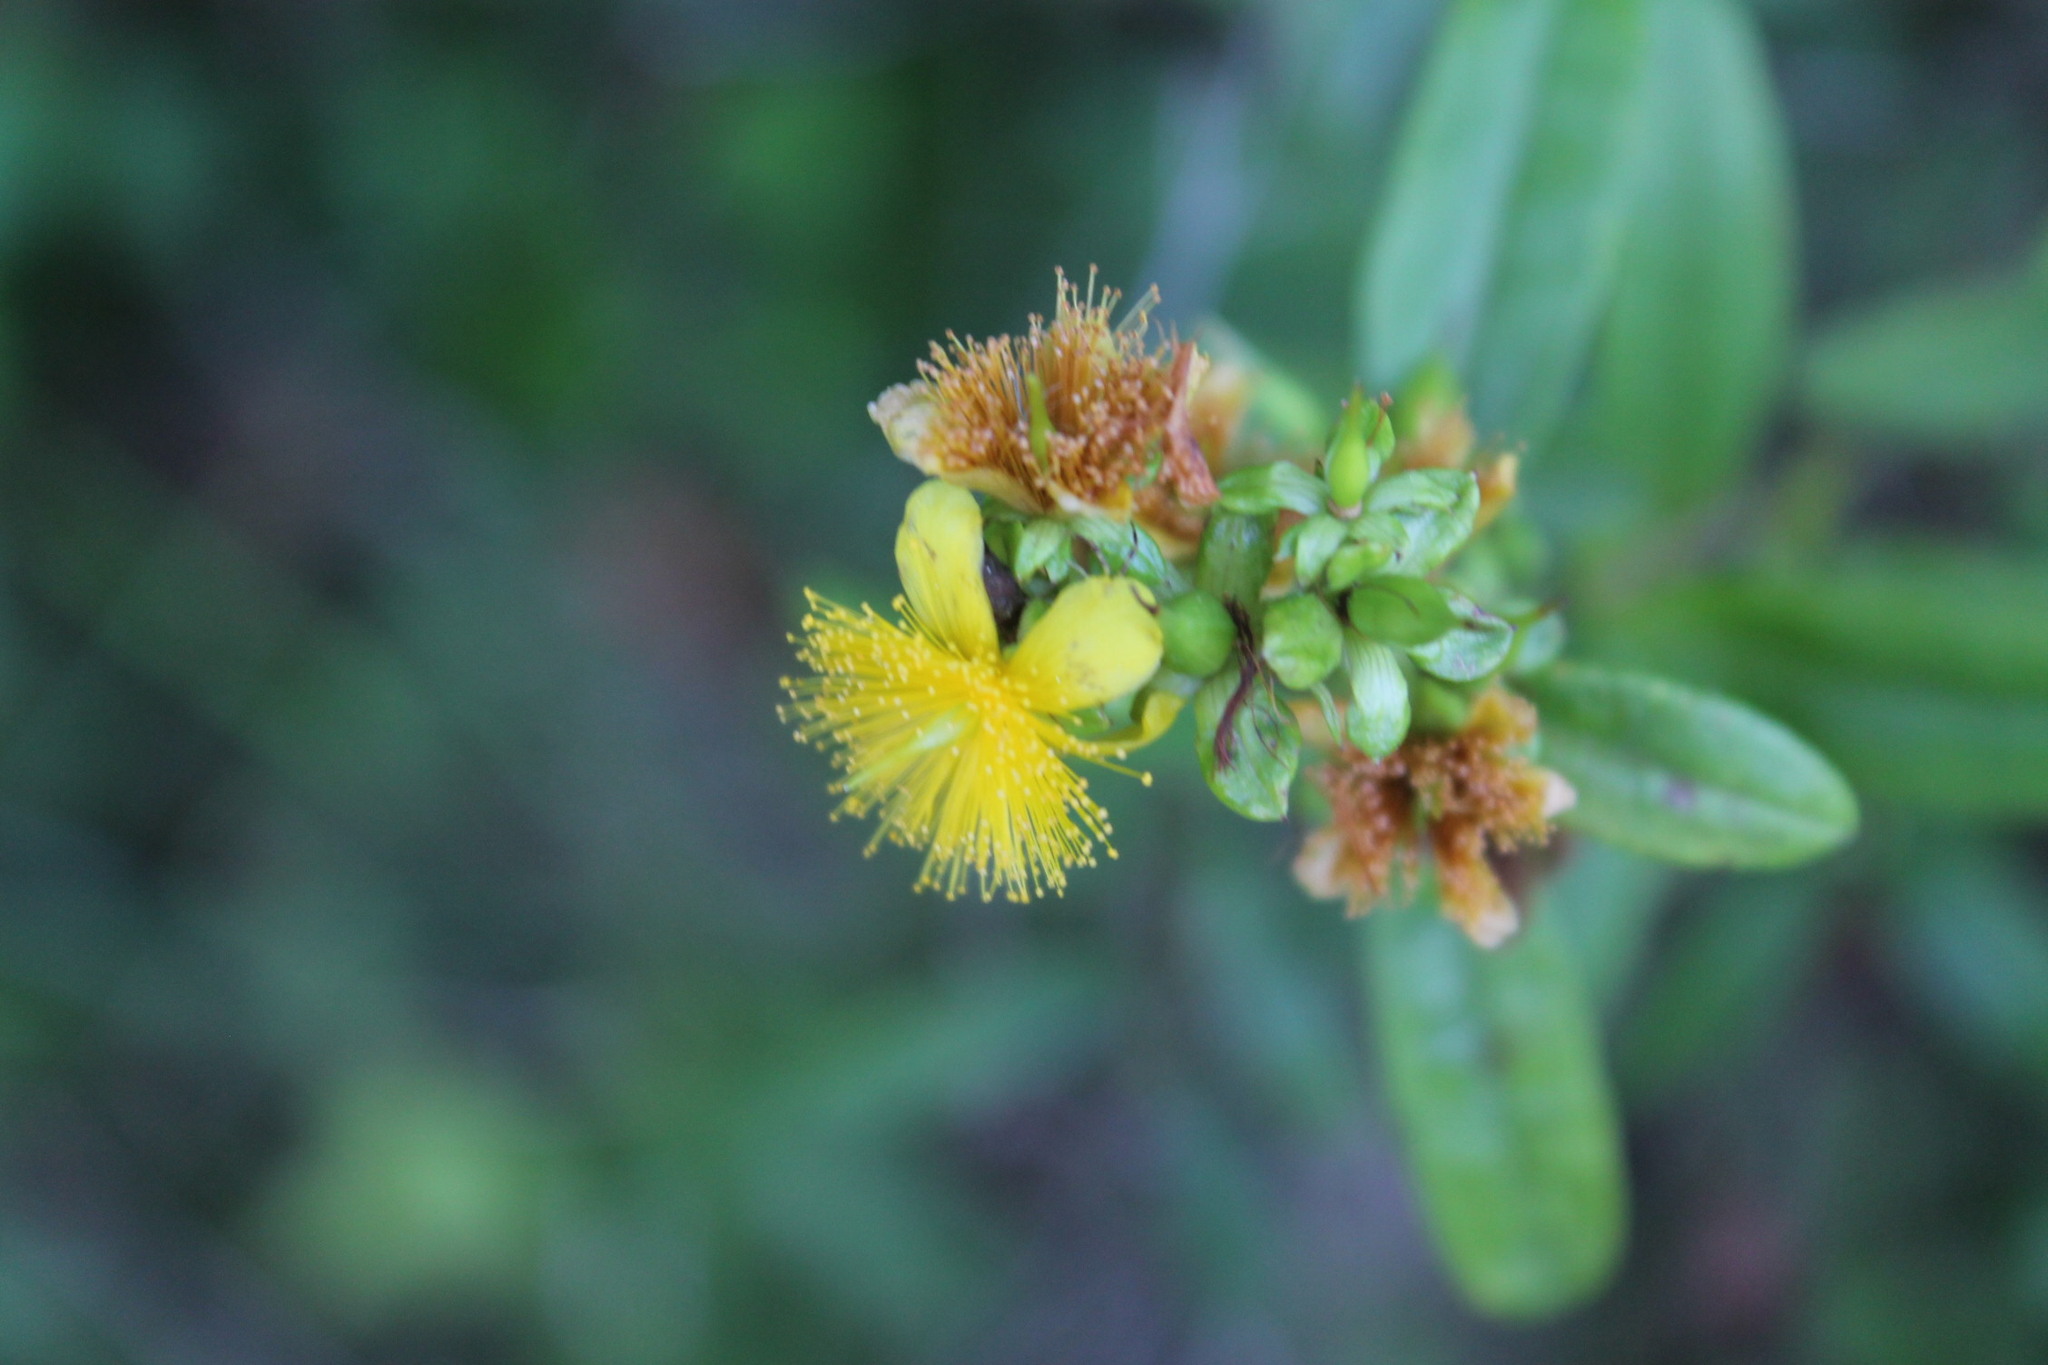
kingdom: Plantae
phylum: Tracheophyta
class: Magnoliopsida
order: Malpighiales
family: Hypericaceae
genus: Hypericum
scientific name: Hypericum prolificum
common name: Shrubby st. john's-wort
